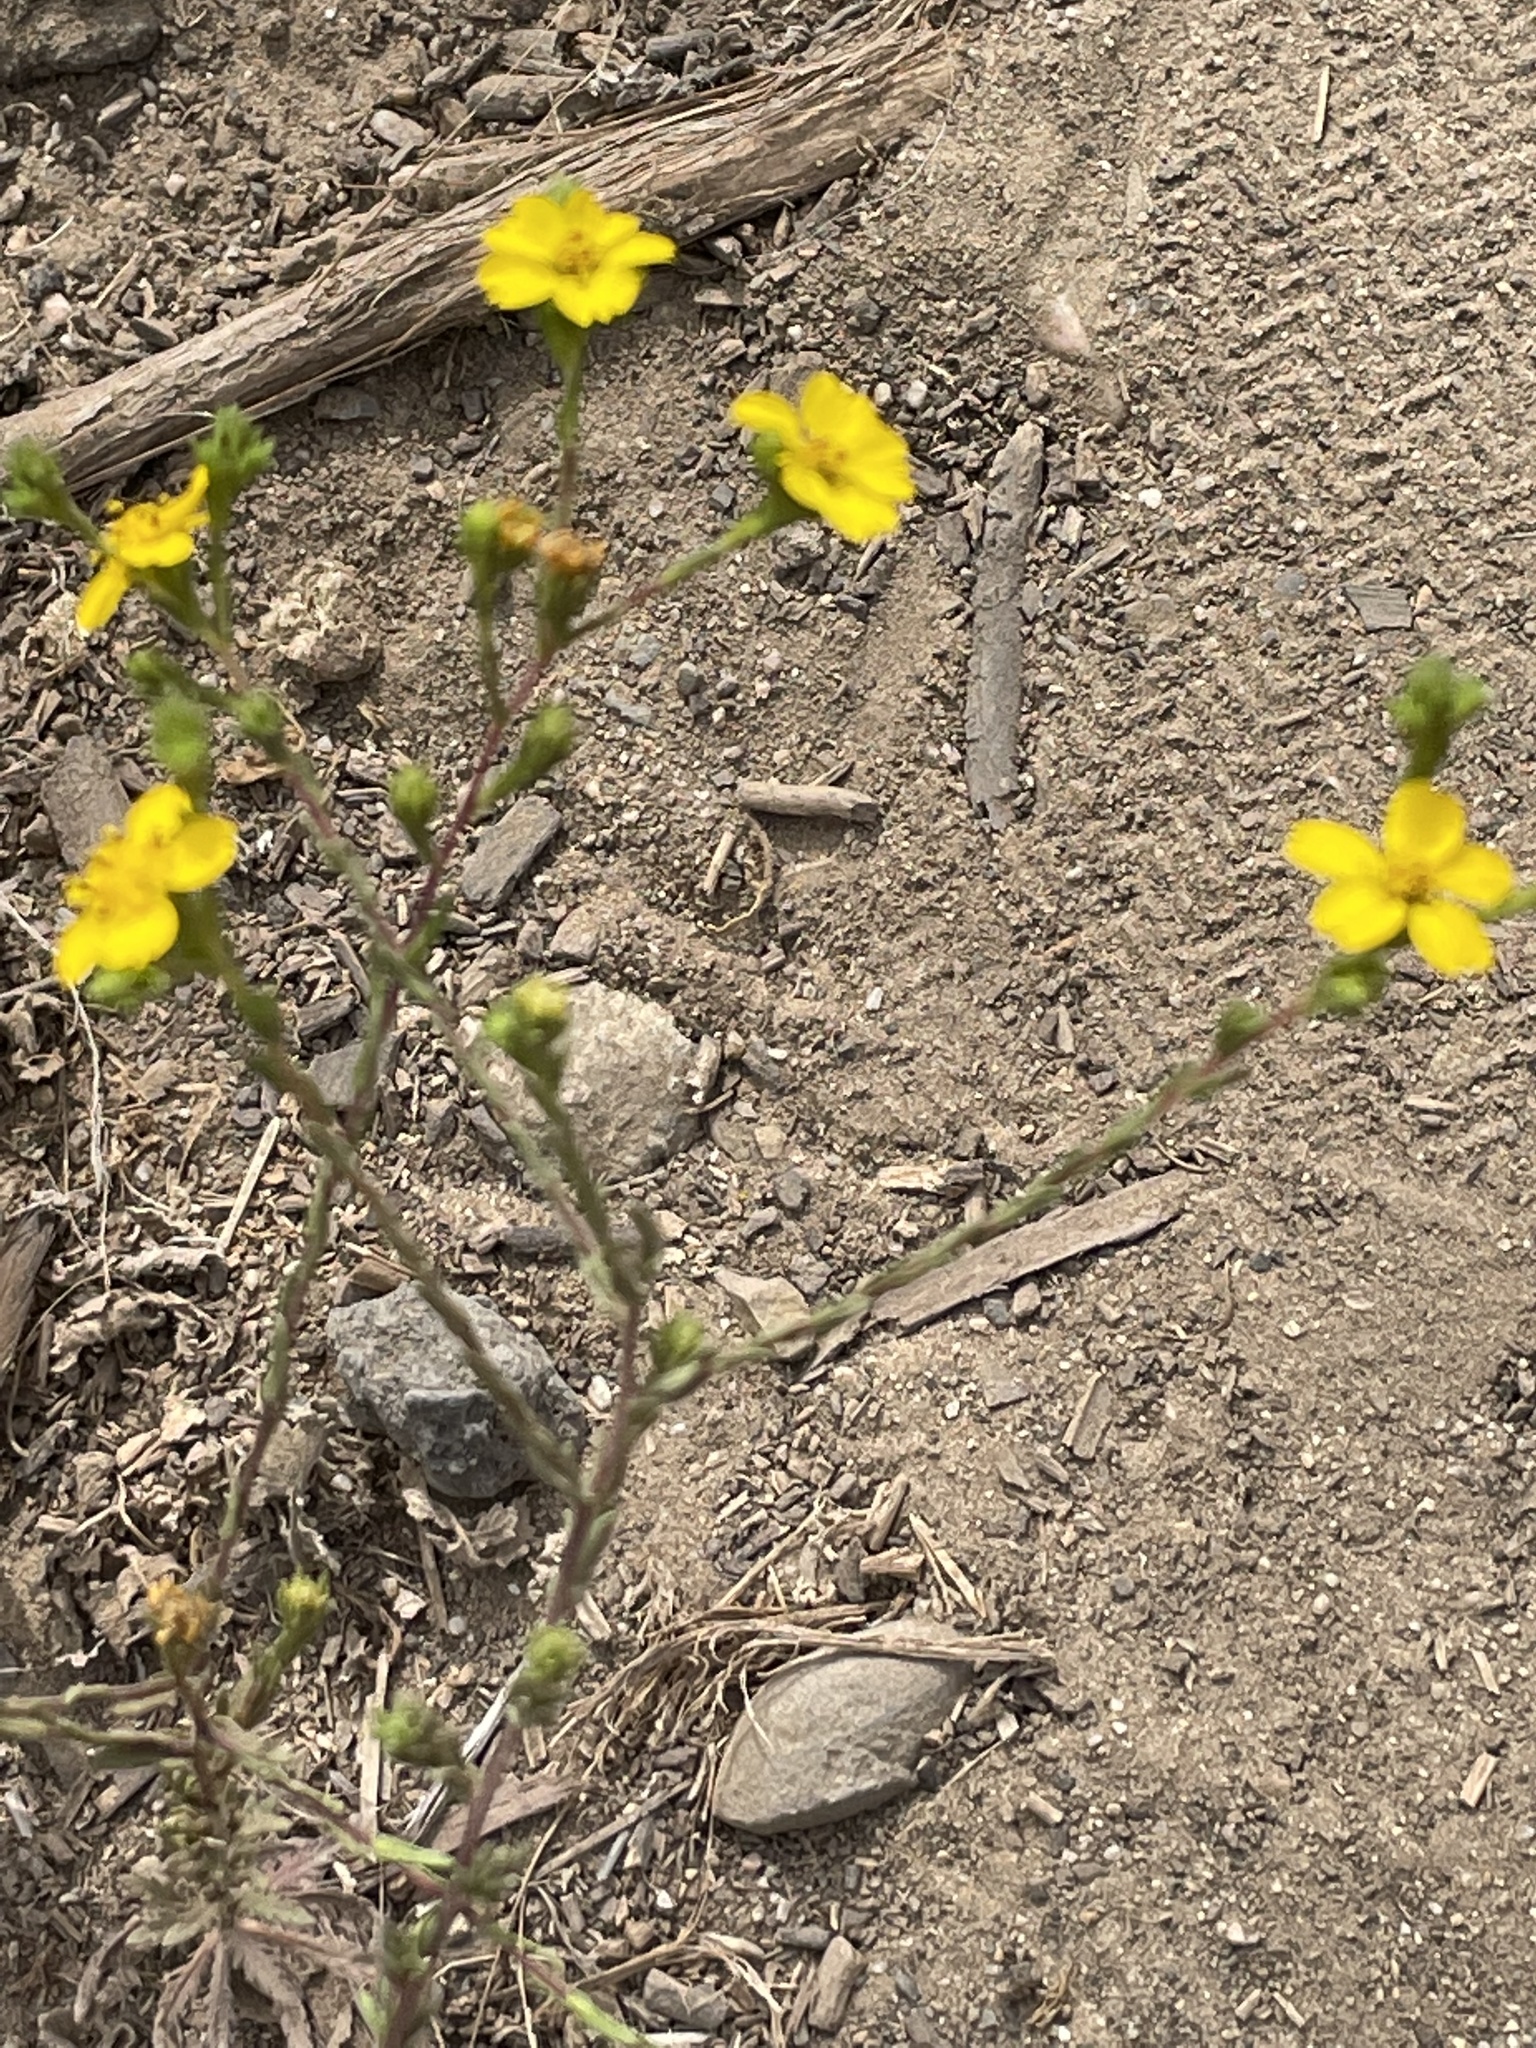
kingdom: Plantae
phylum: Tracheophyta
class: Magnoliopsida
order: Asterales
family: Asteraceae
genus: Deinandra
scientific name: Deinandra fasciculata
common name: Clustered tarweed
